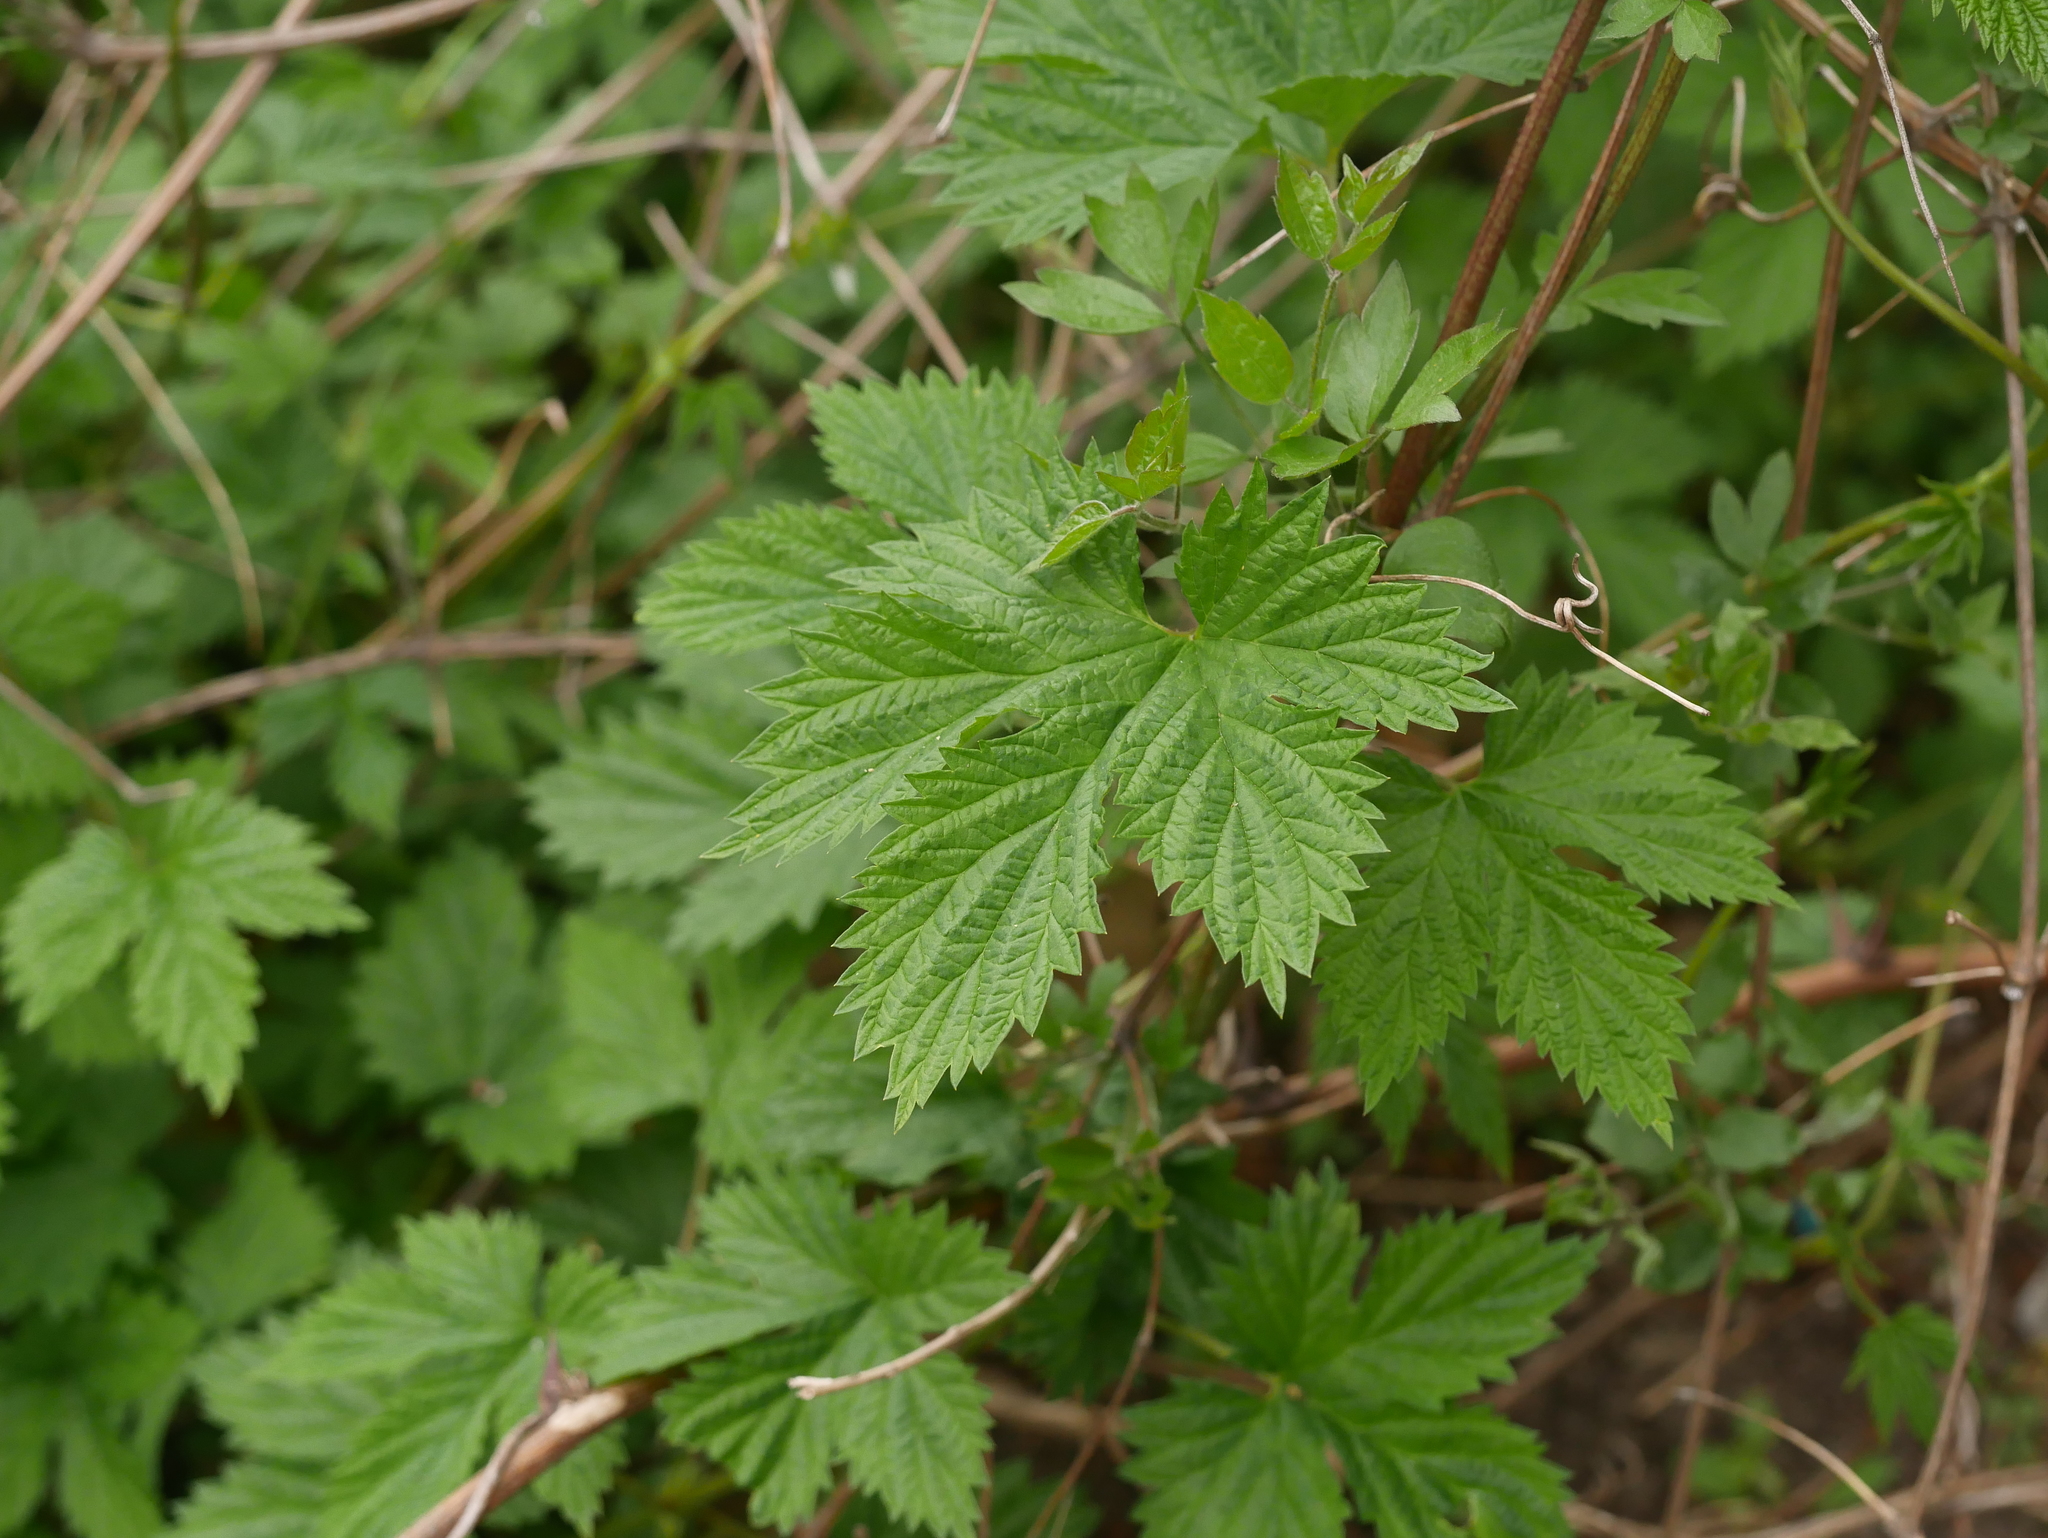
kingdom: Plantae
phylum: Tracheophyta
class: Magnoliopsida
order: Rosales
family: Cannabaceae
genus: Humulus
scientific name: Humulus lupulus
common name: Hop
